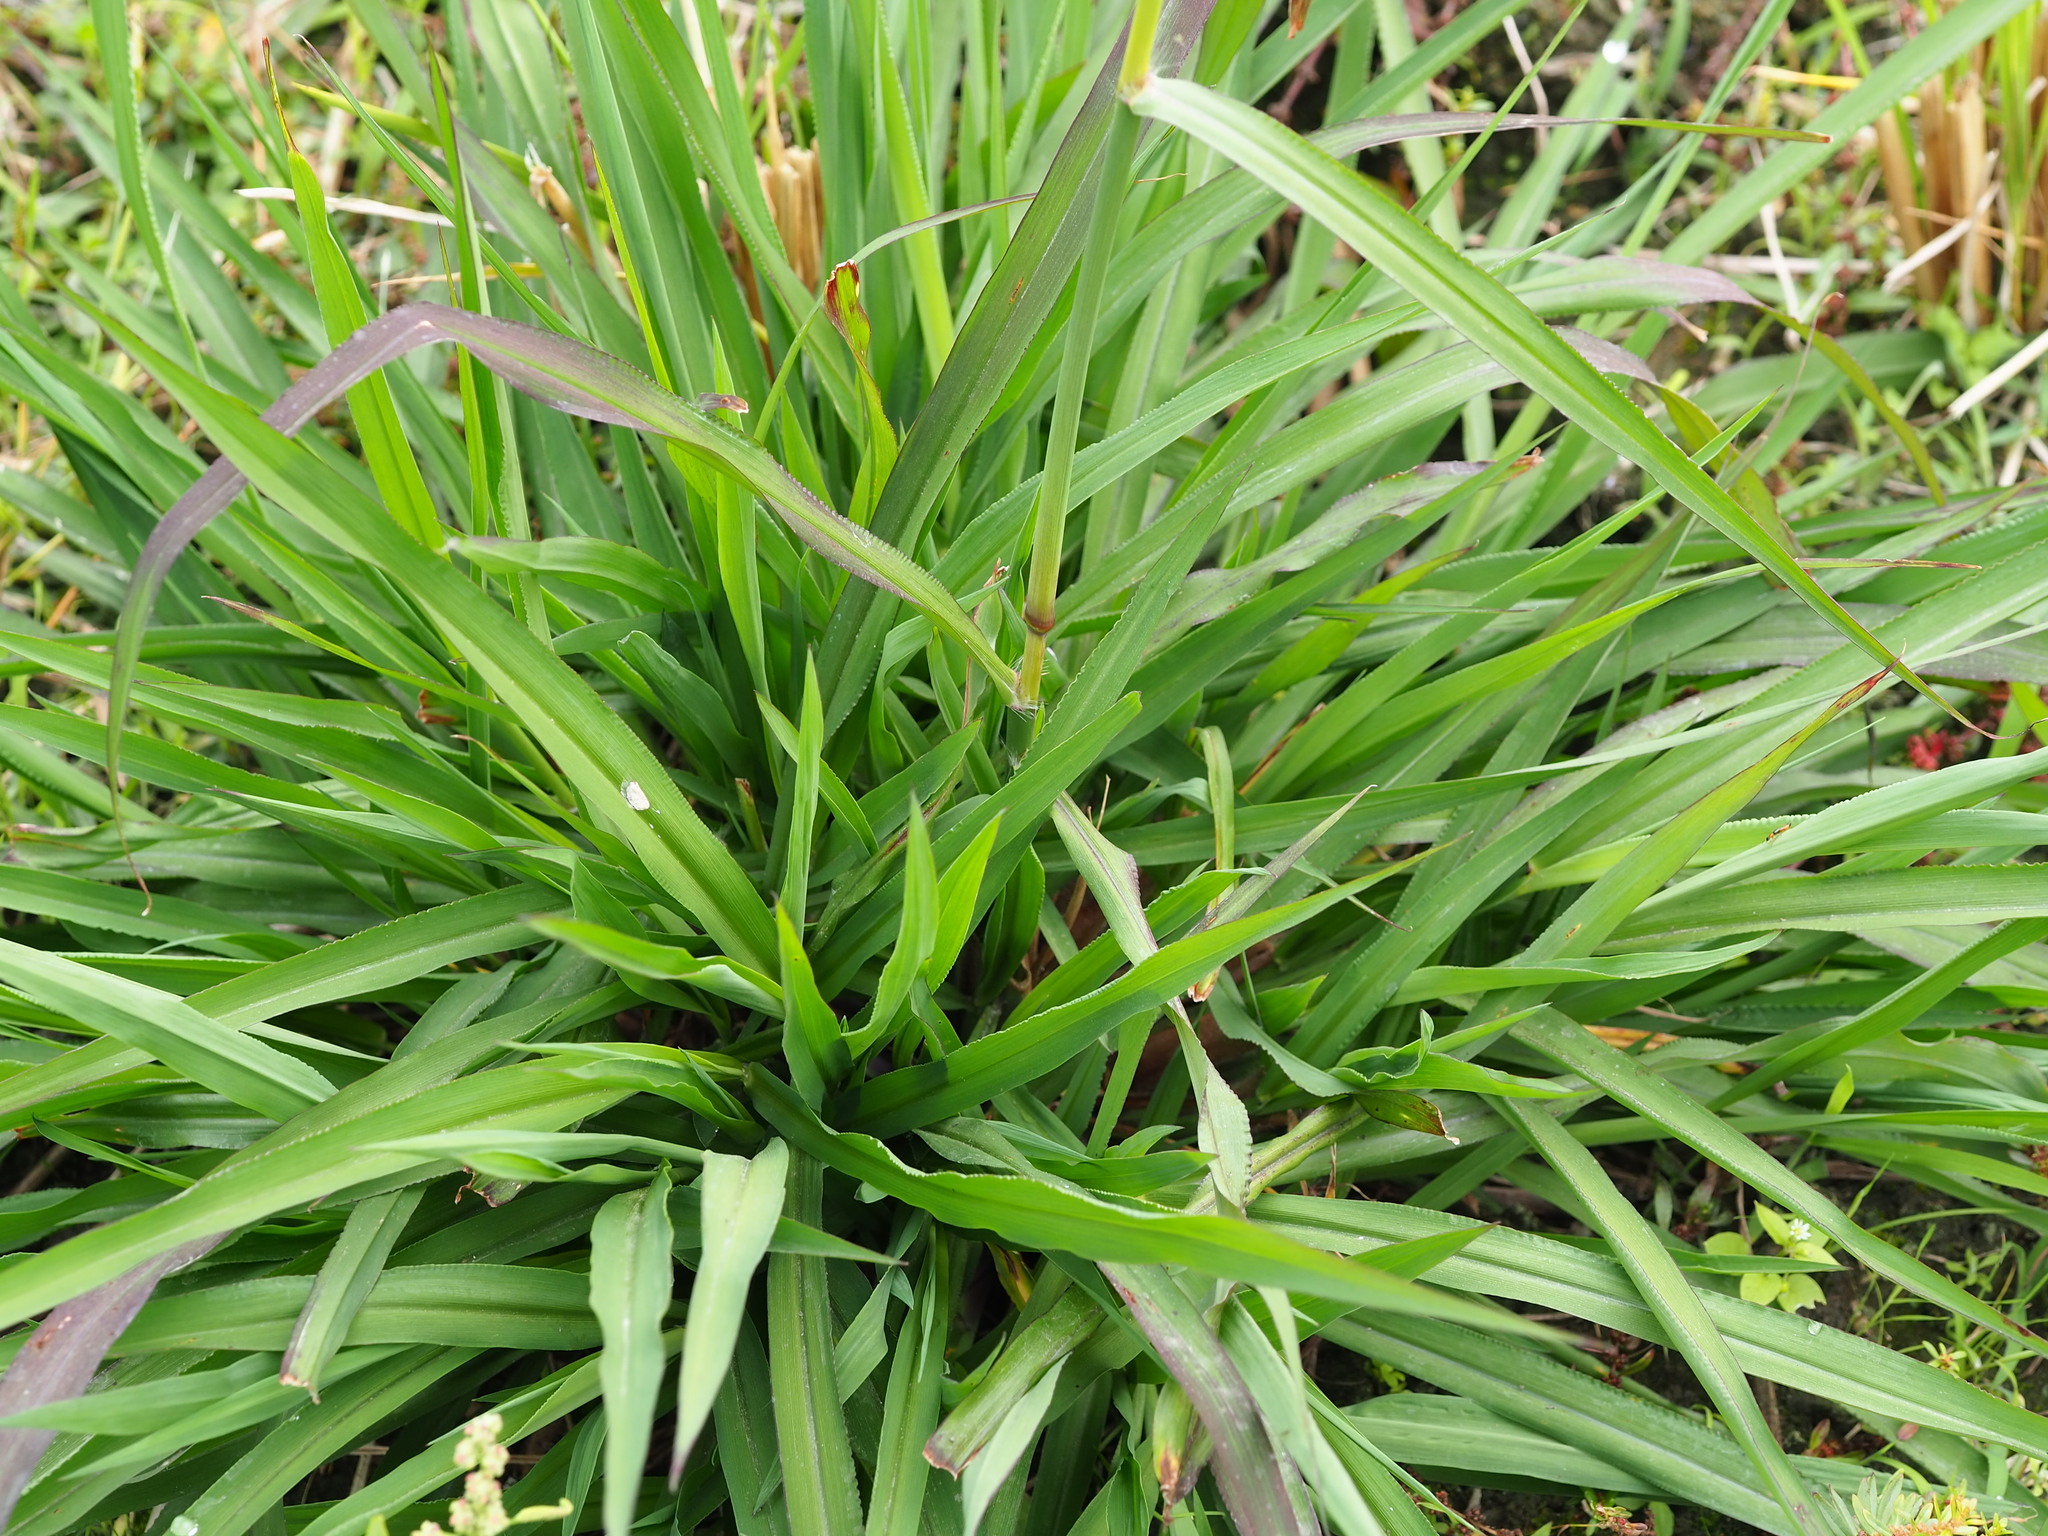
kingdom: Plantae
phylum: Tracheophyta
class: Liliopsida
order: Poales
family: Poaceae
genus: Paspalum
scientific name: Paspalum urvillei
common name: Vasey's grass
